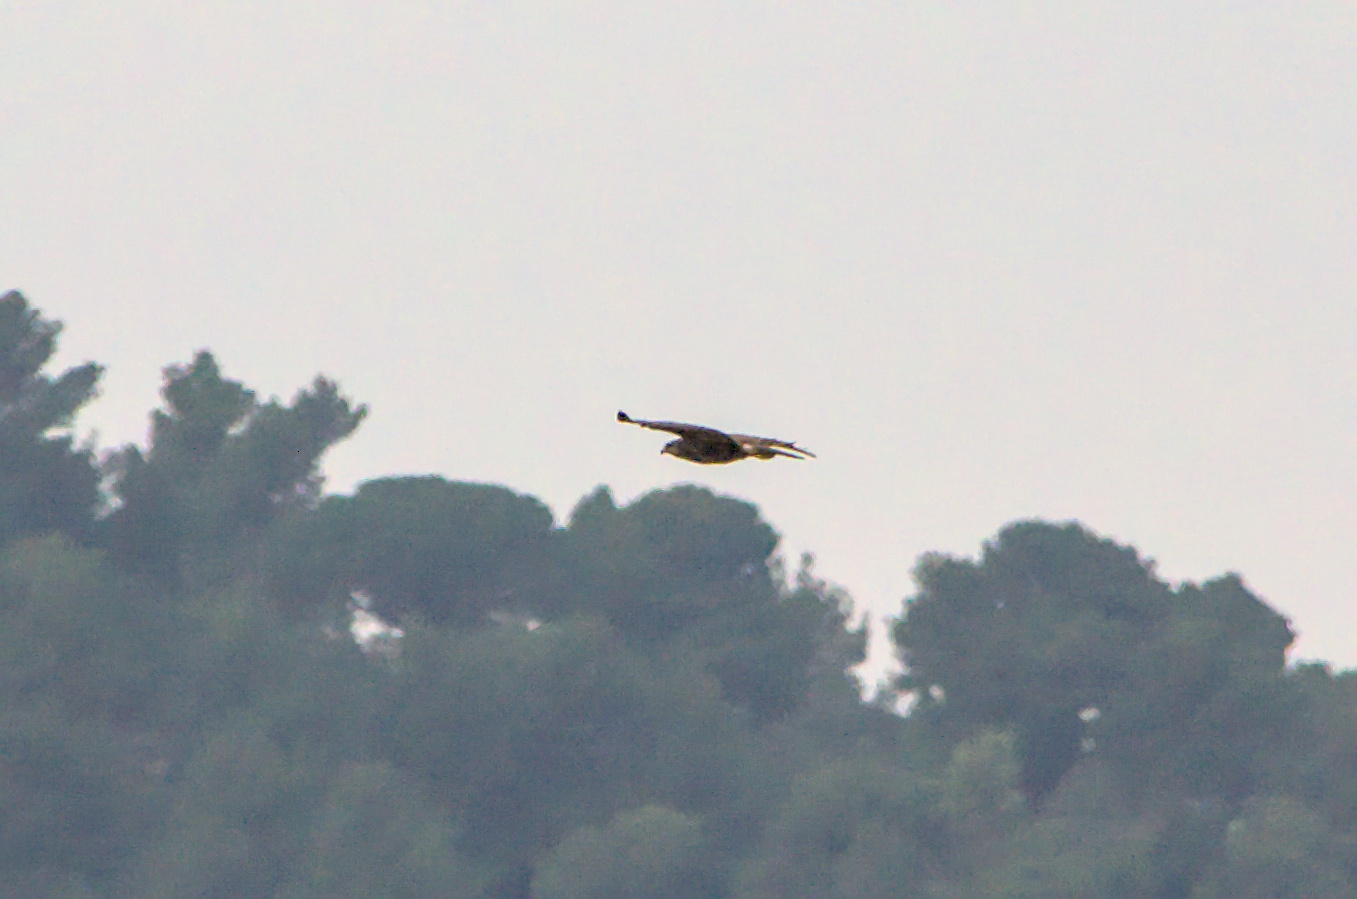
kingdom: Animalia
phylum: Chordata
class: Aves
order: Accipitriformes
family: Accipitridae
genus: Buteo
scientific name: Buteo buteo
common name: Common buzzard
